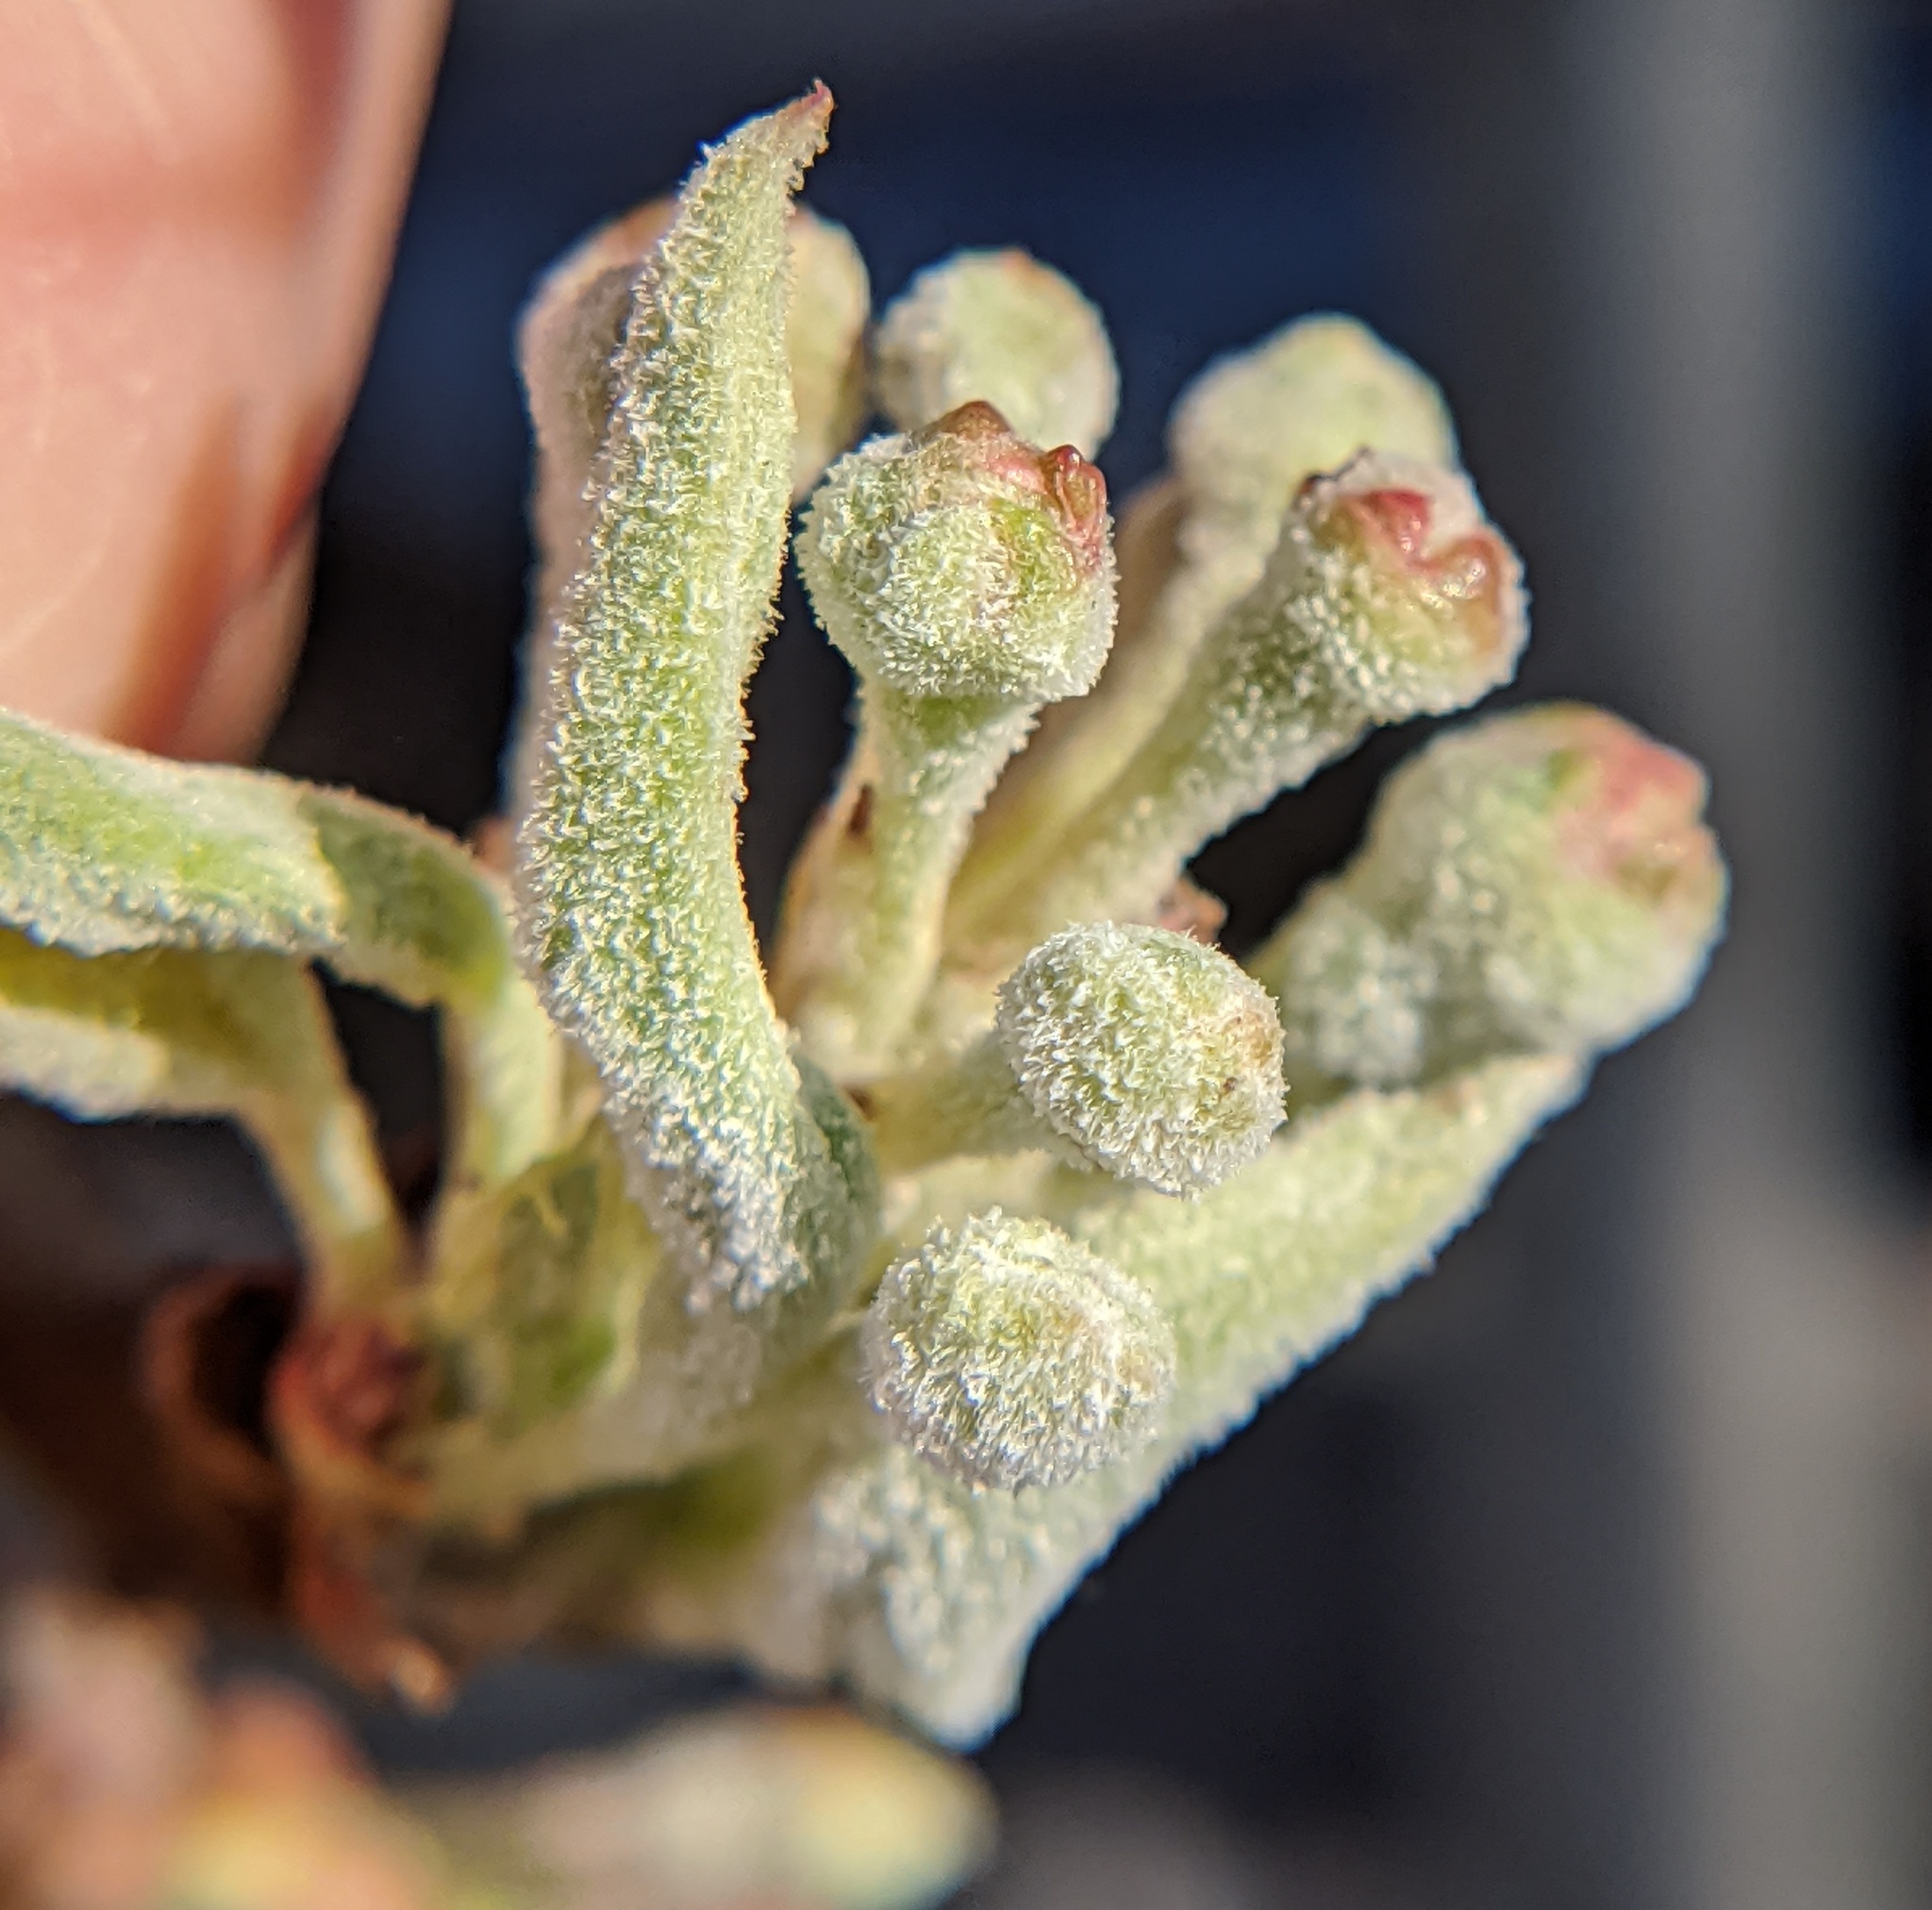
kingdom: Fungi
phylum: Ascomycota
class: Leotiomycetes
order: Helotiales
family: Erysiphaceae
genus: Podosphaera
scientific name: Podosphaera leucotricha
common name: Apple powdery mildew
